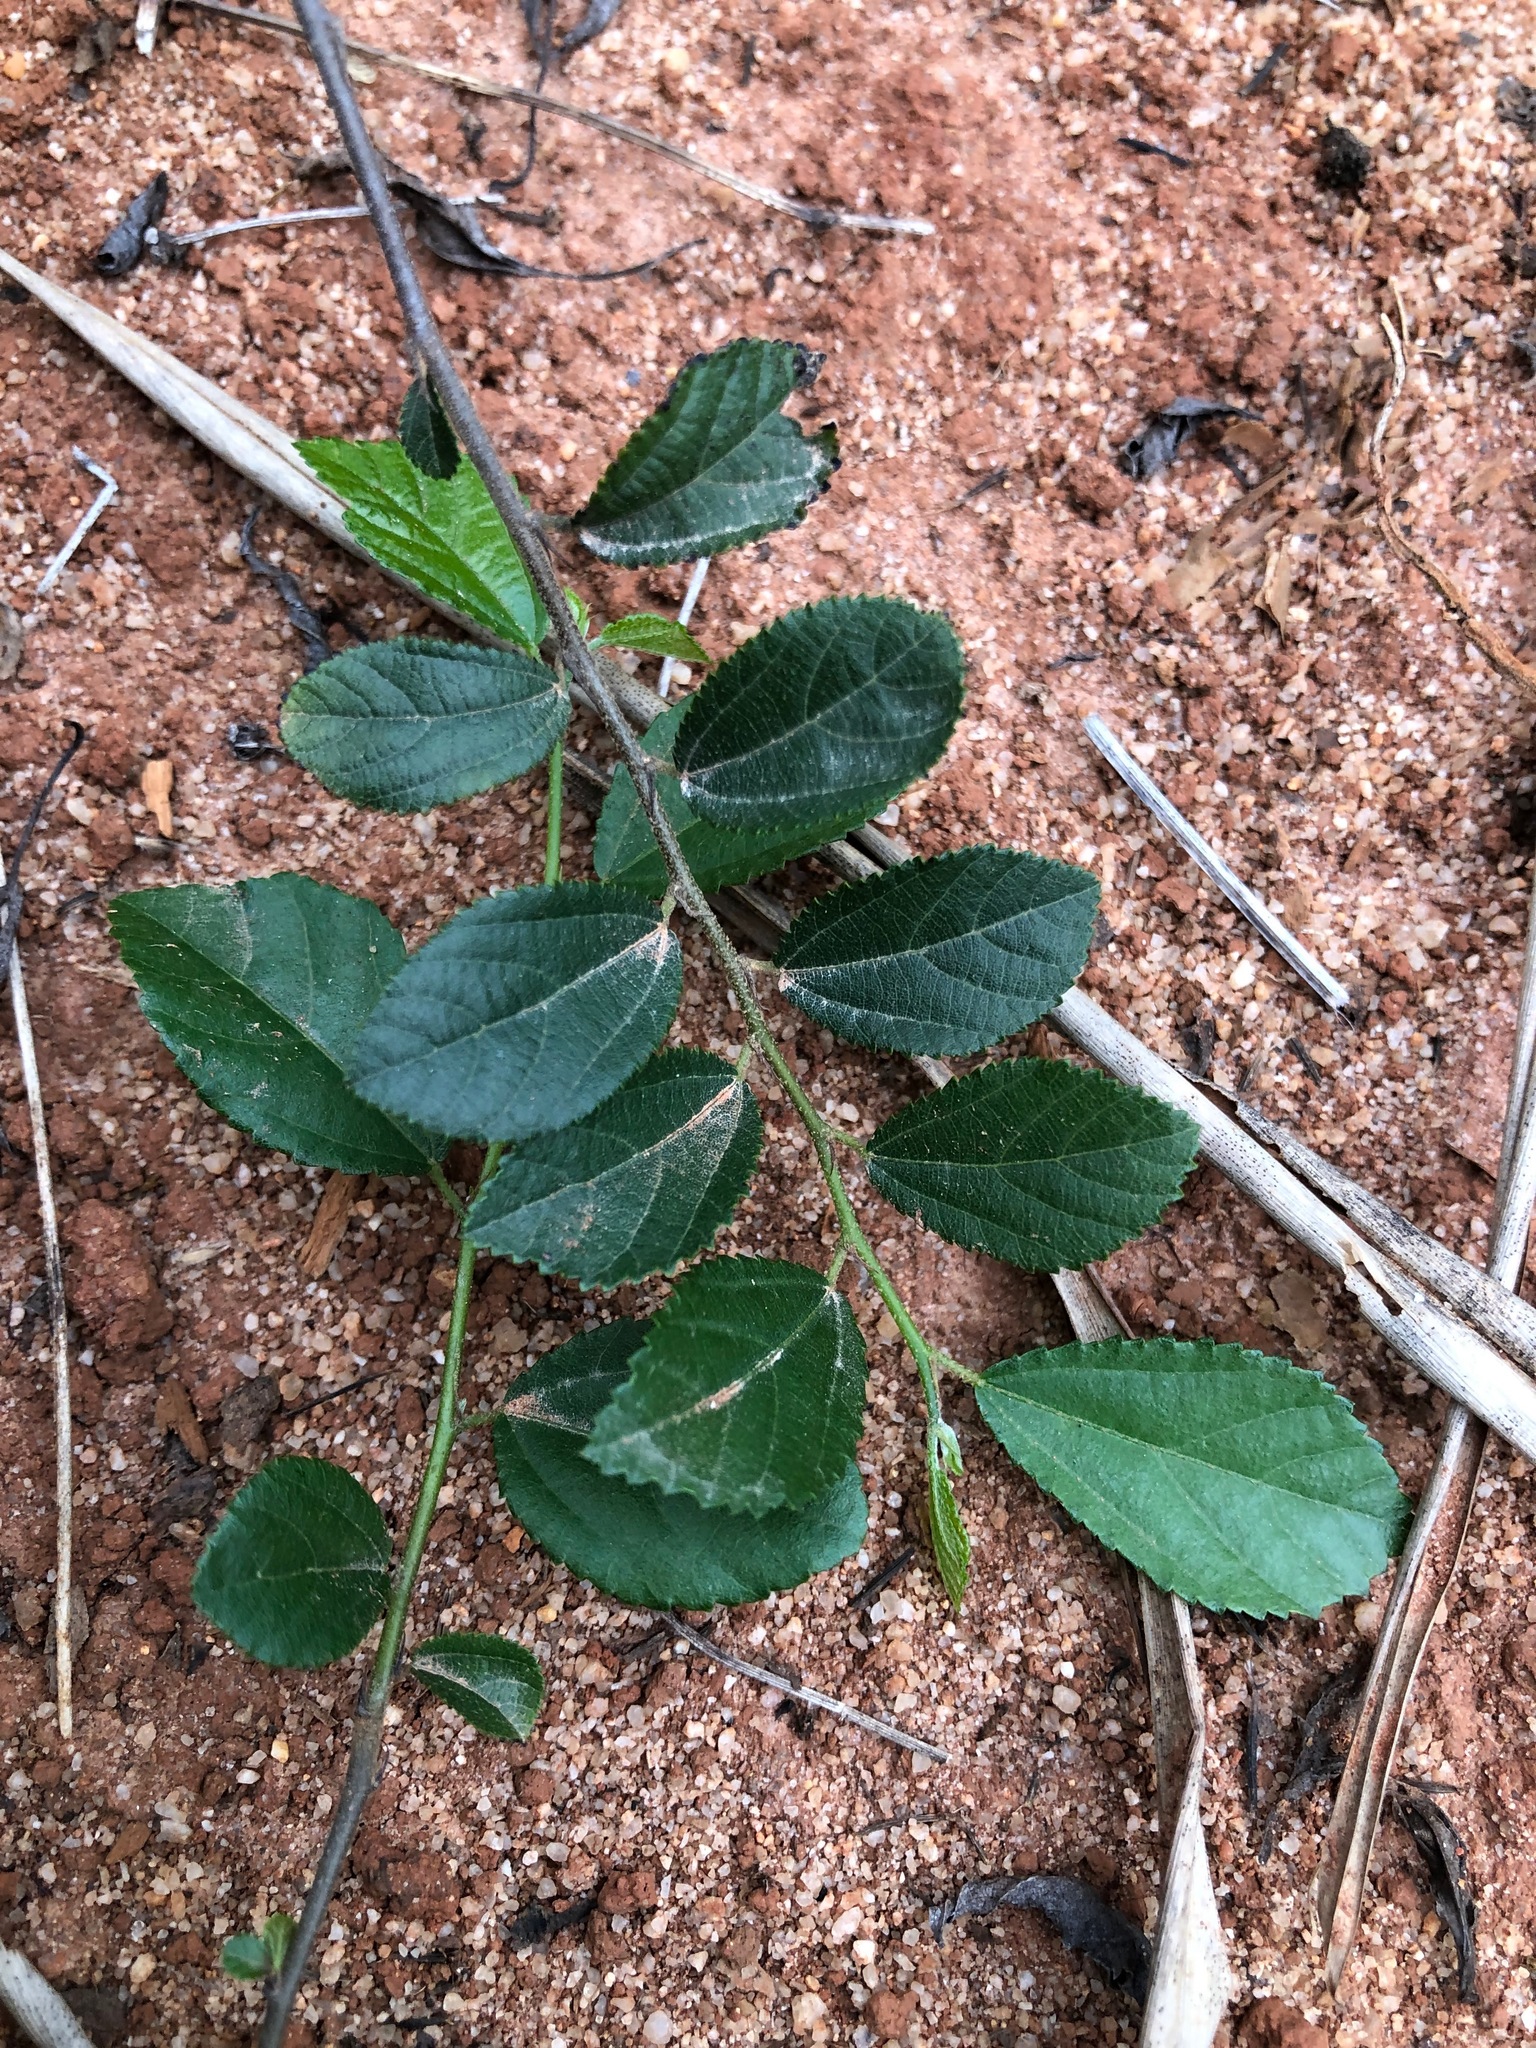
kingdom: Plantae
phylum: Tracheophyta
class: Magnoliopsida
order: Malvales
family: Malvaceae
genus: Grewia
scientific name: Grewia rhombifolia
